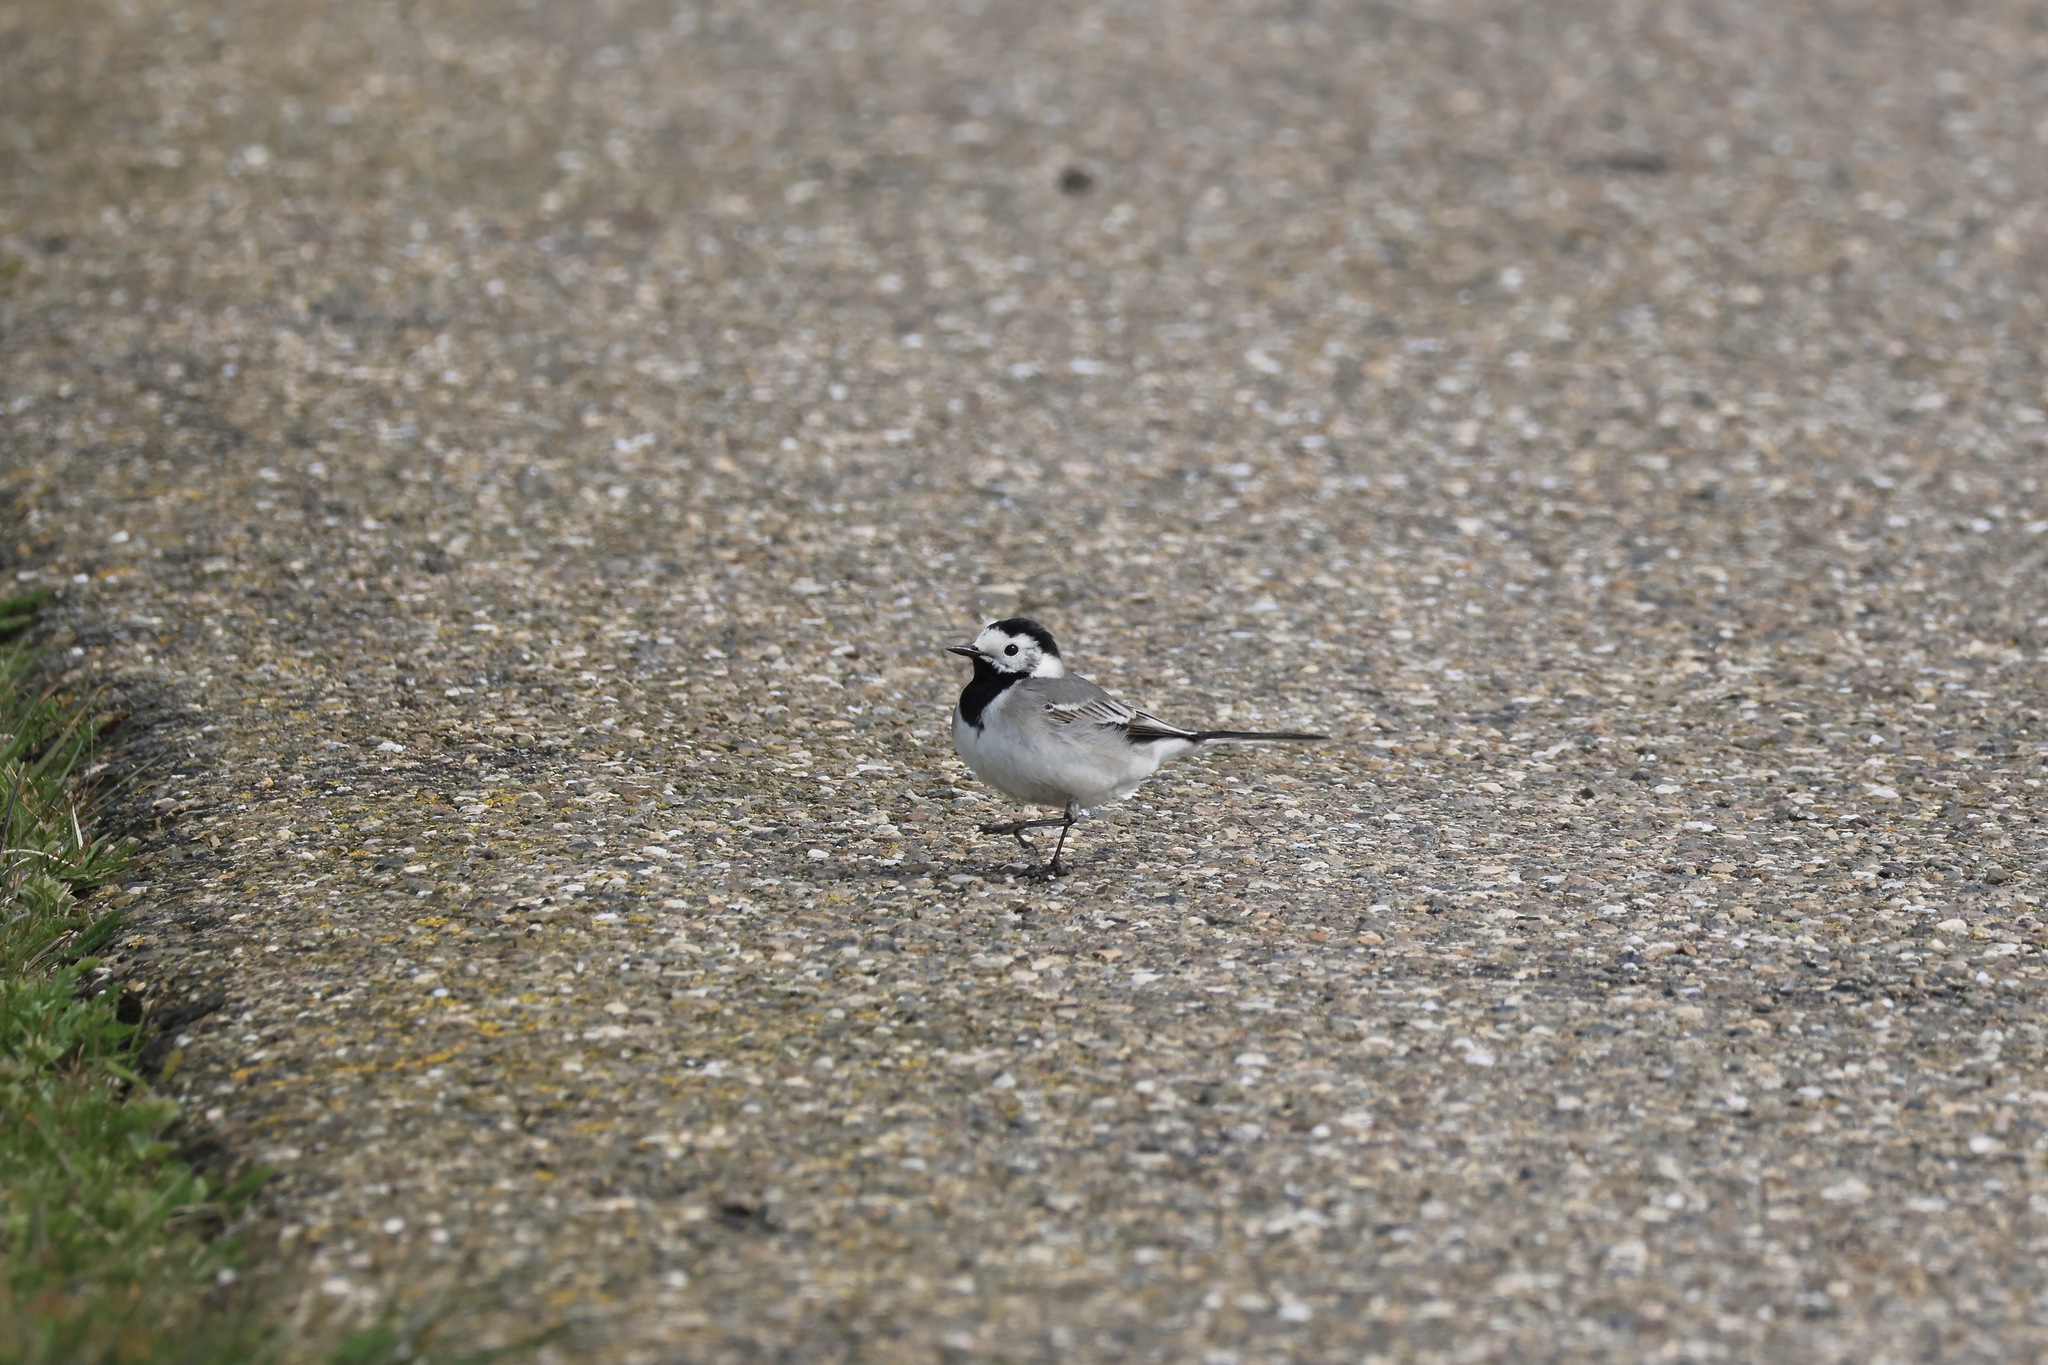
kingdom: Animalia
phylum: Chordata
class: Aves
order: Passeriformes
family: Motacillidae
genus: Motacilla
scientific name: Motacilla alba
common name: White wagtail
